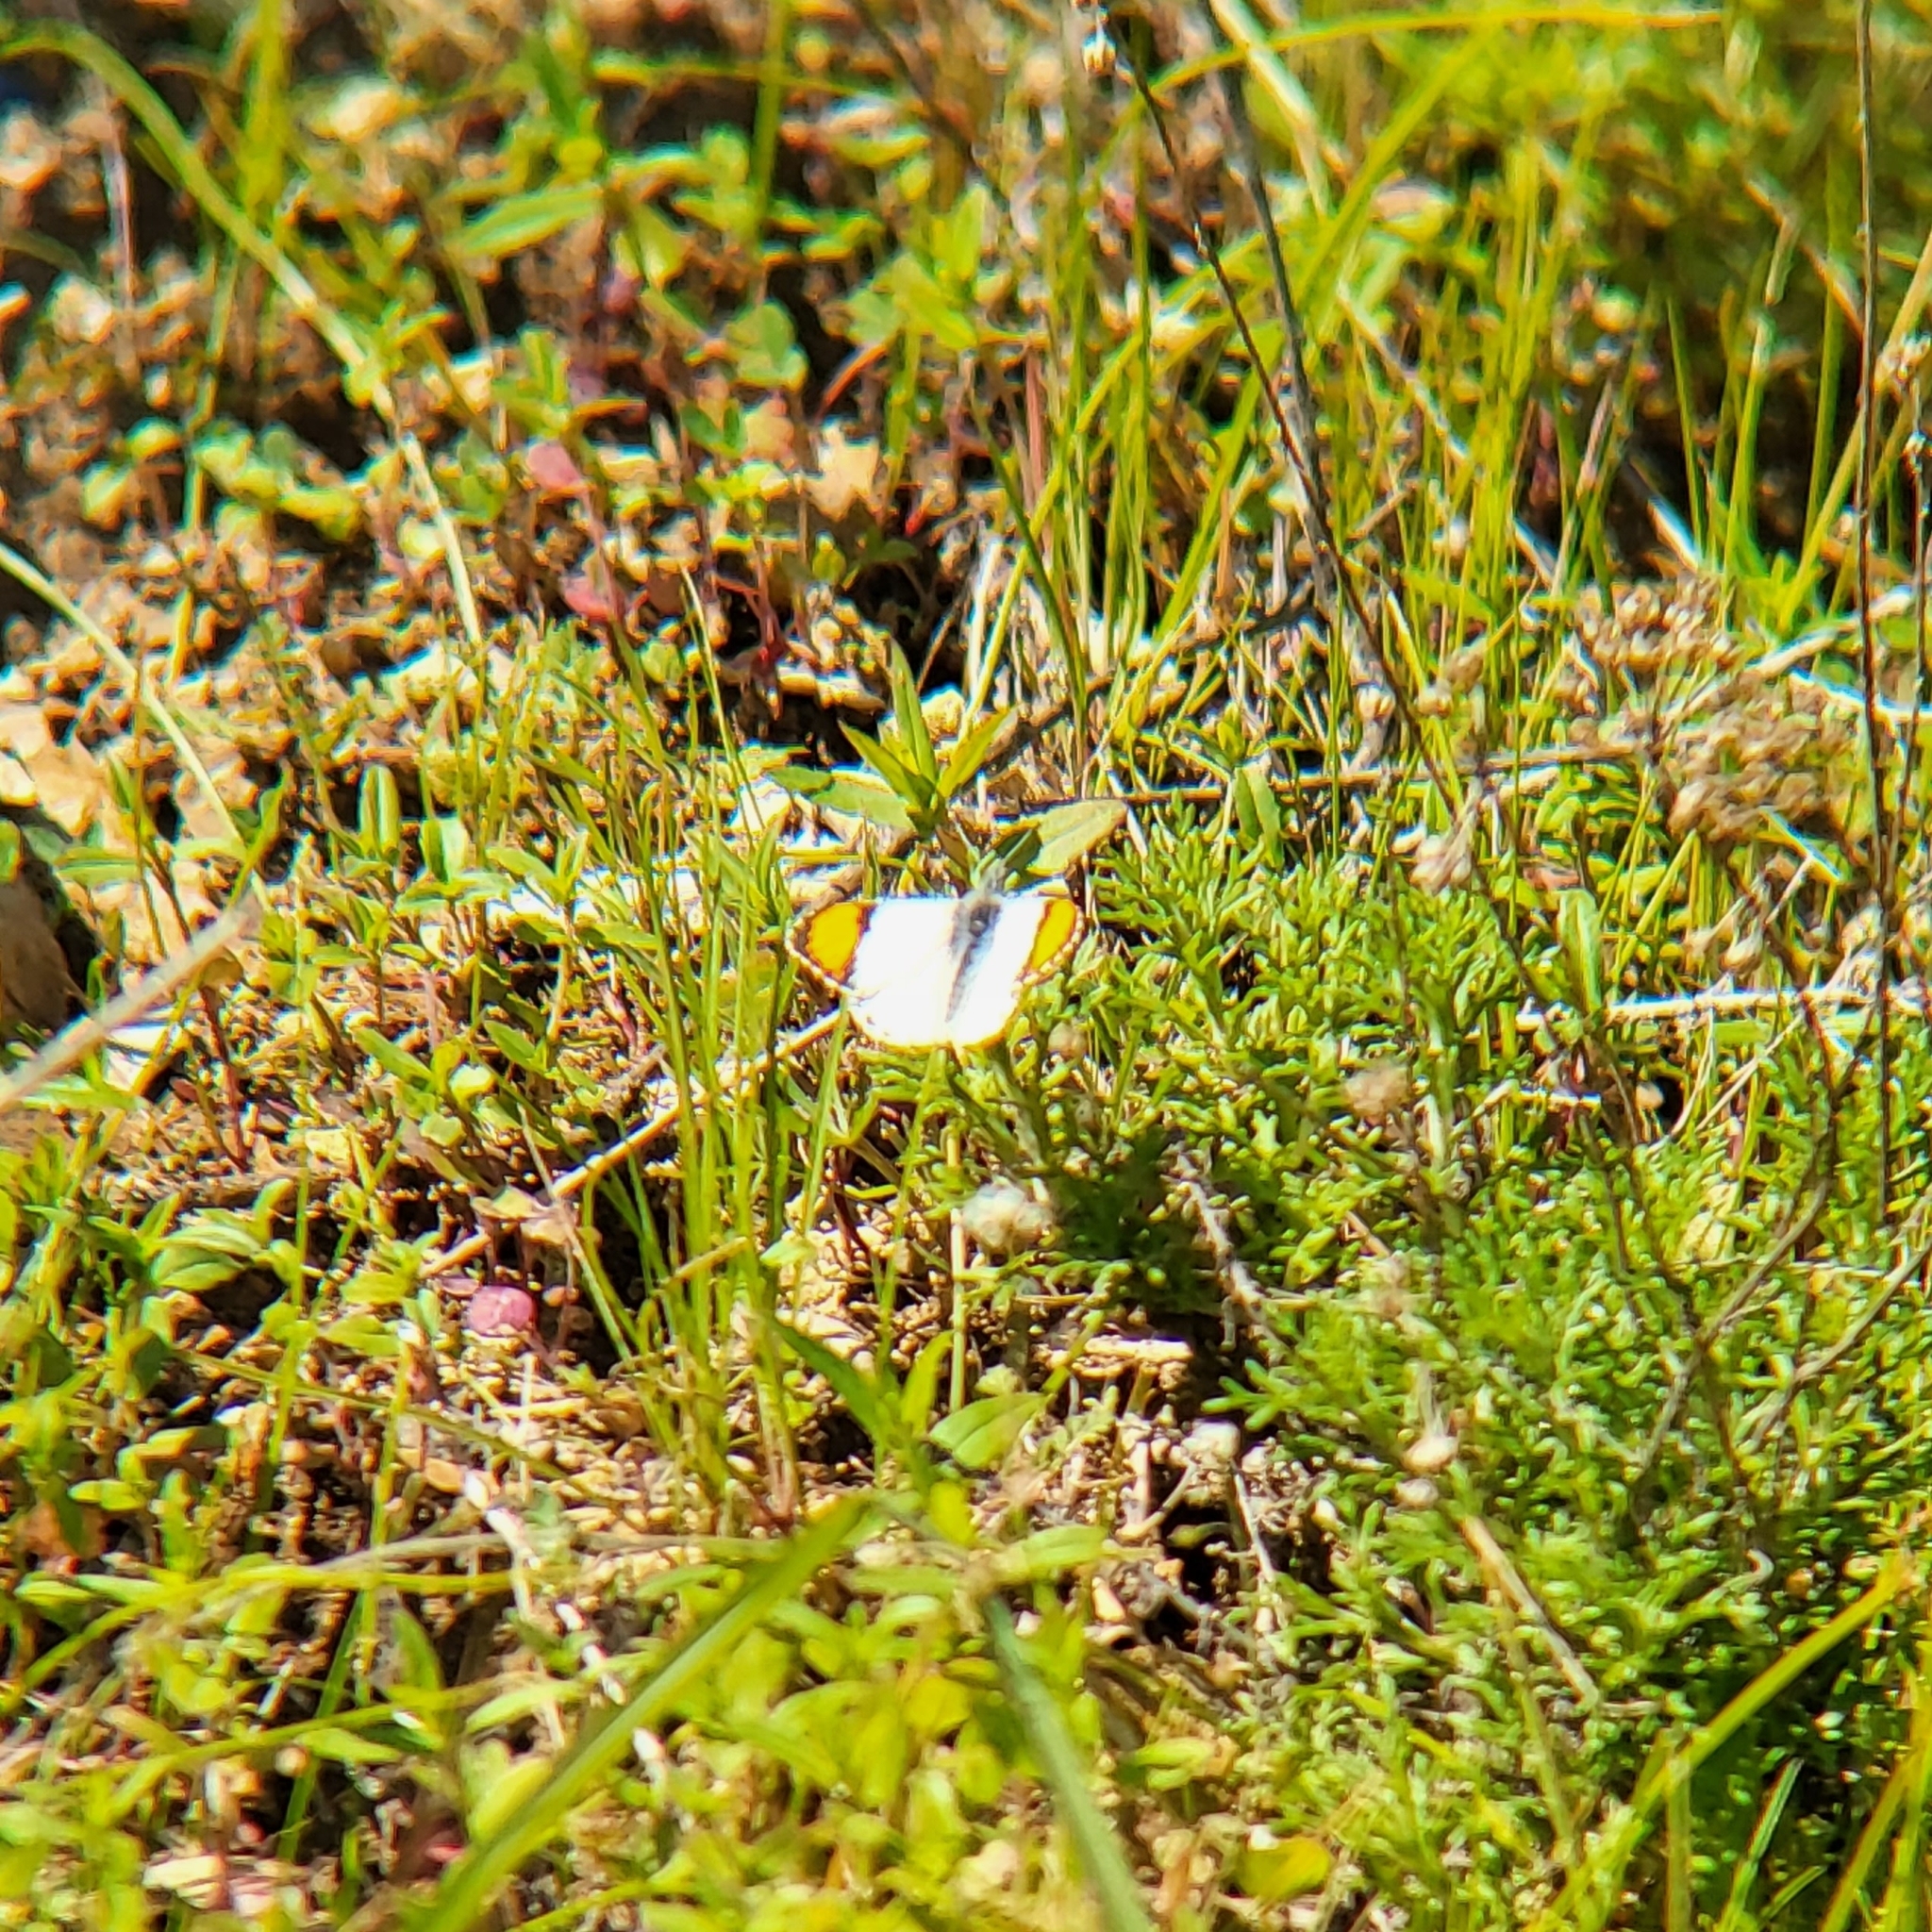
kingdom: Animalia
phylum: Arthropoda
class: Insecta
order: Lepidoptera
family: Pieridae
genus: Anthocharis
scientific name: Anthocharis sara
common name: Sara's orangetip
